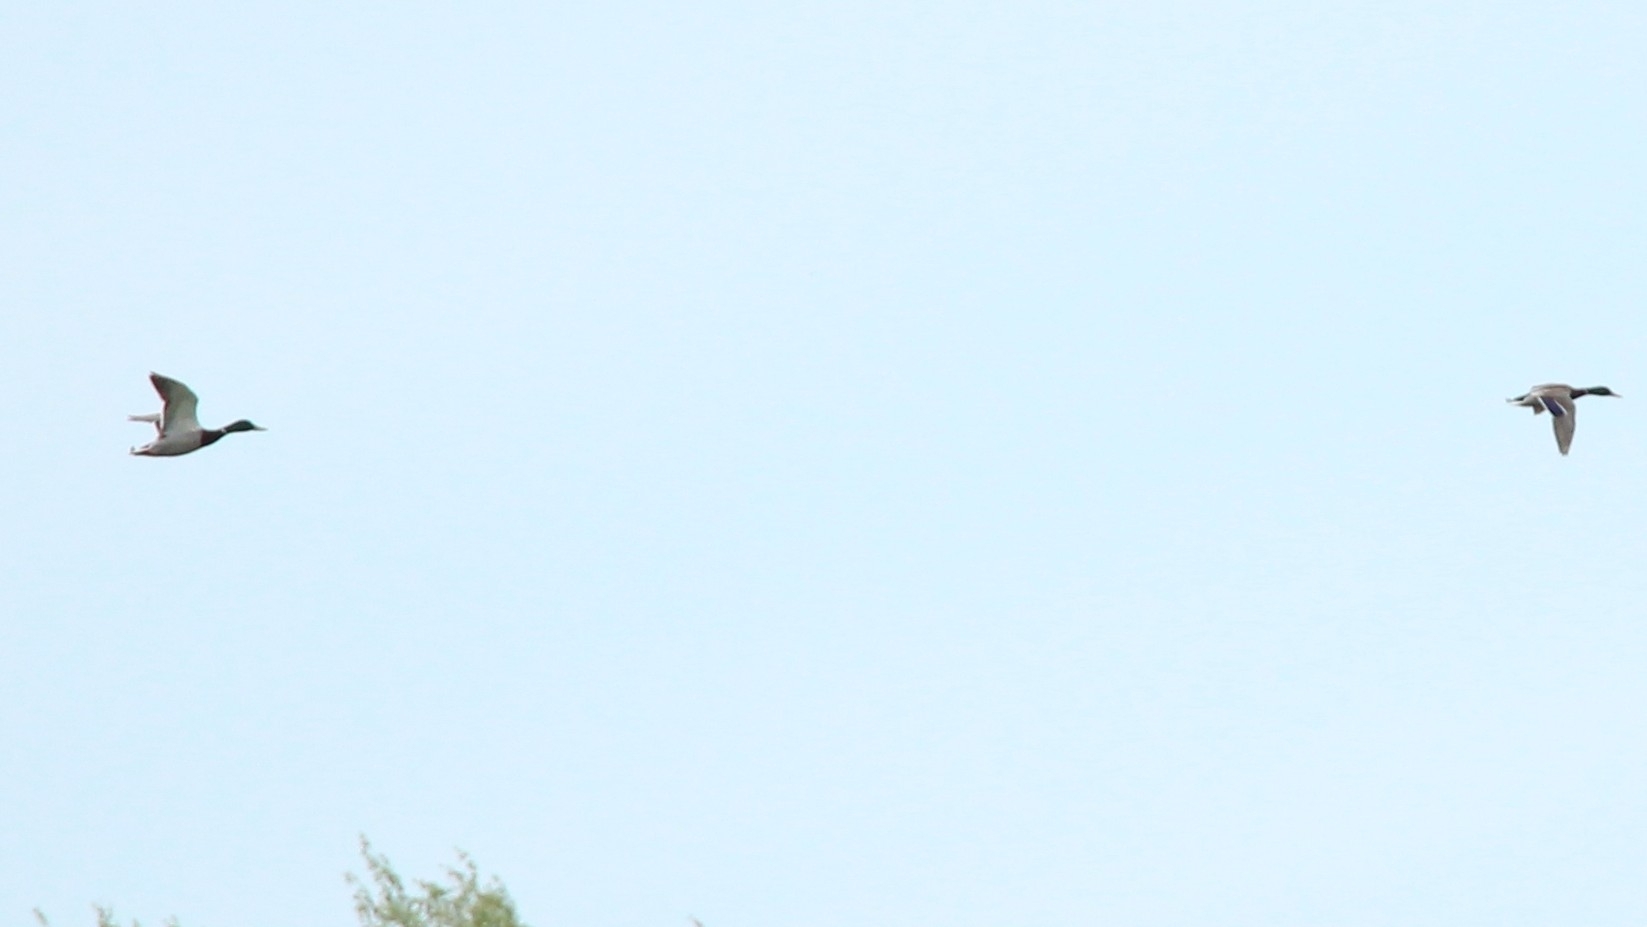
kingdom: Animalia
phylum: Chordata
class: Aves
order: Anseriformes
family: Anatidae
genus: Anas
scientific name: Anas platyrhynchos
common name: Mallard
